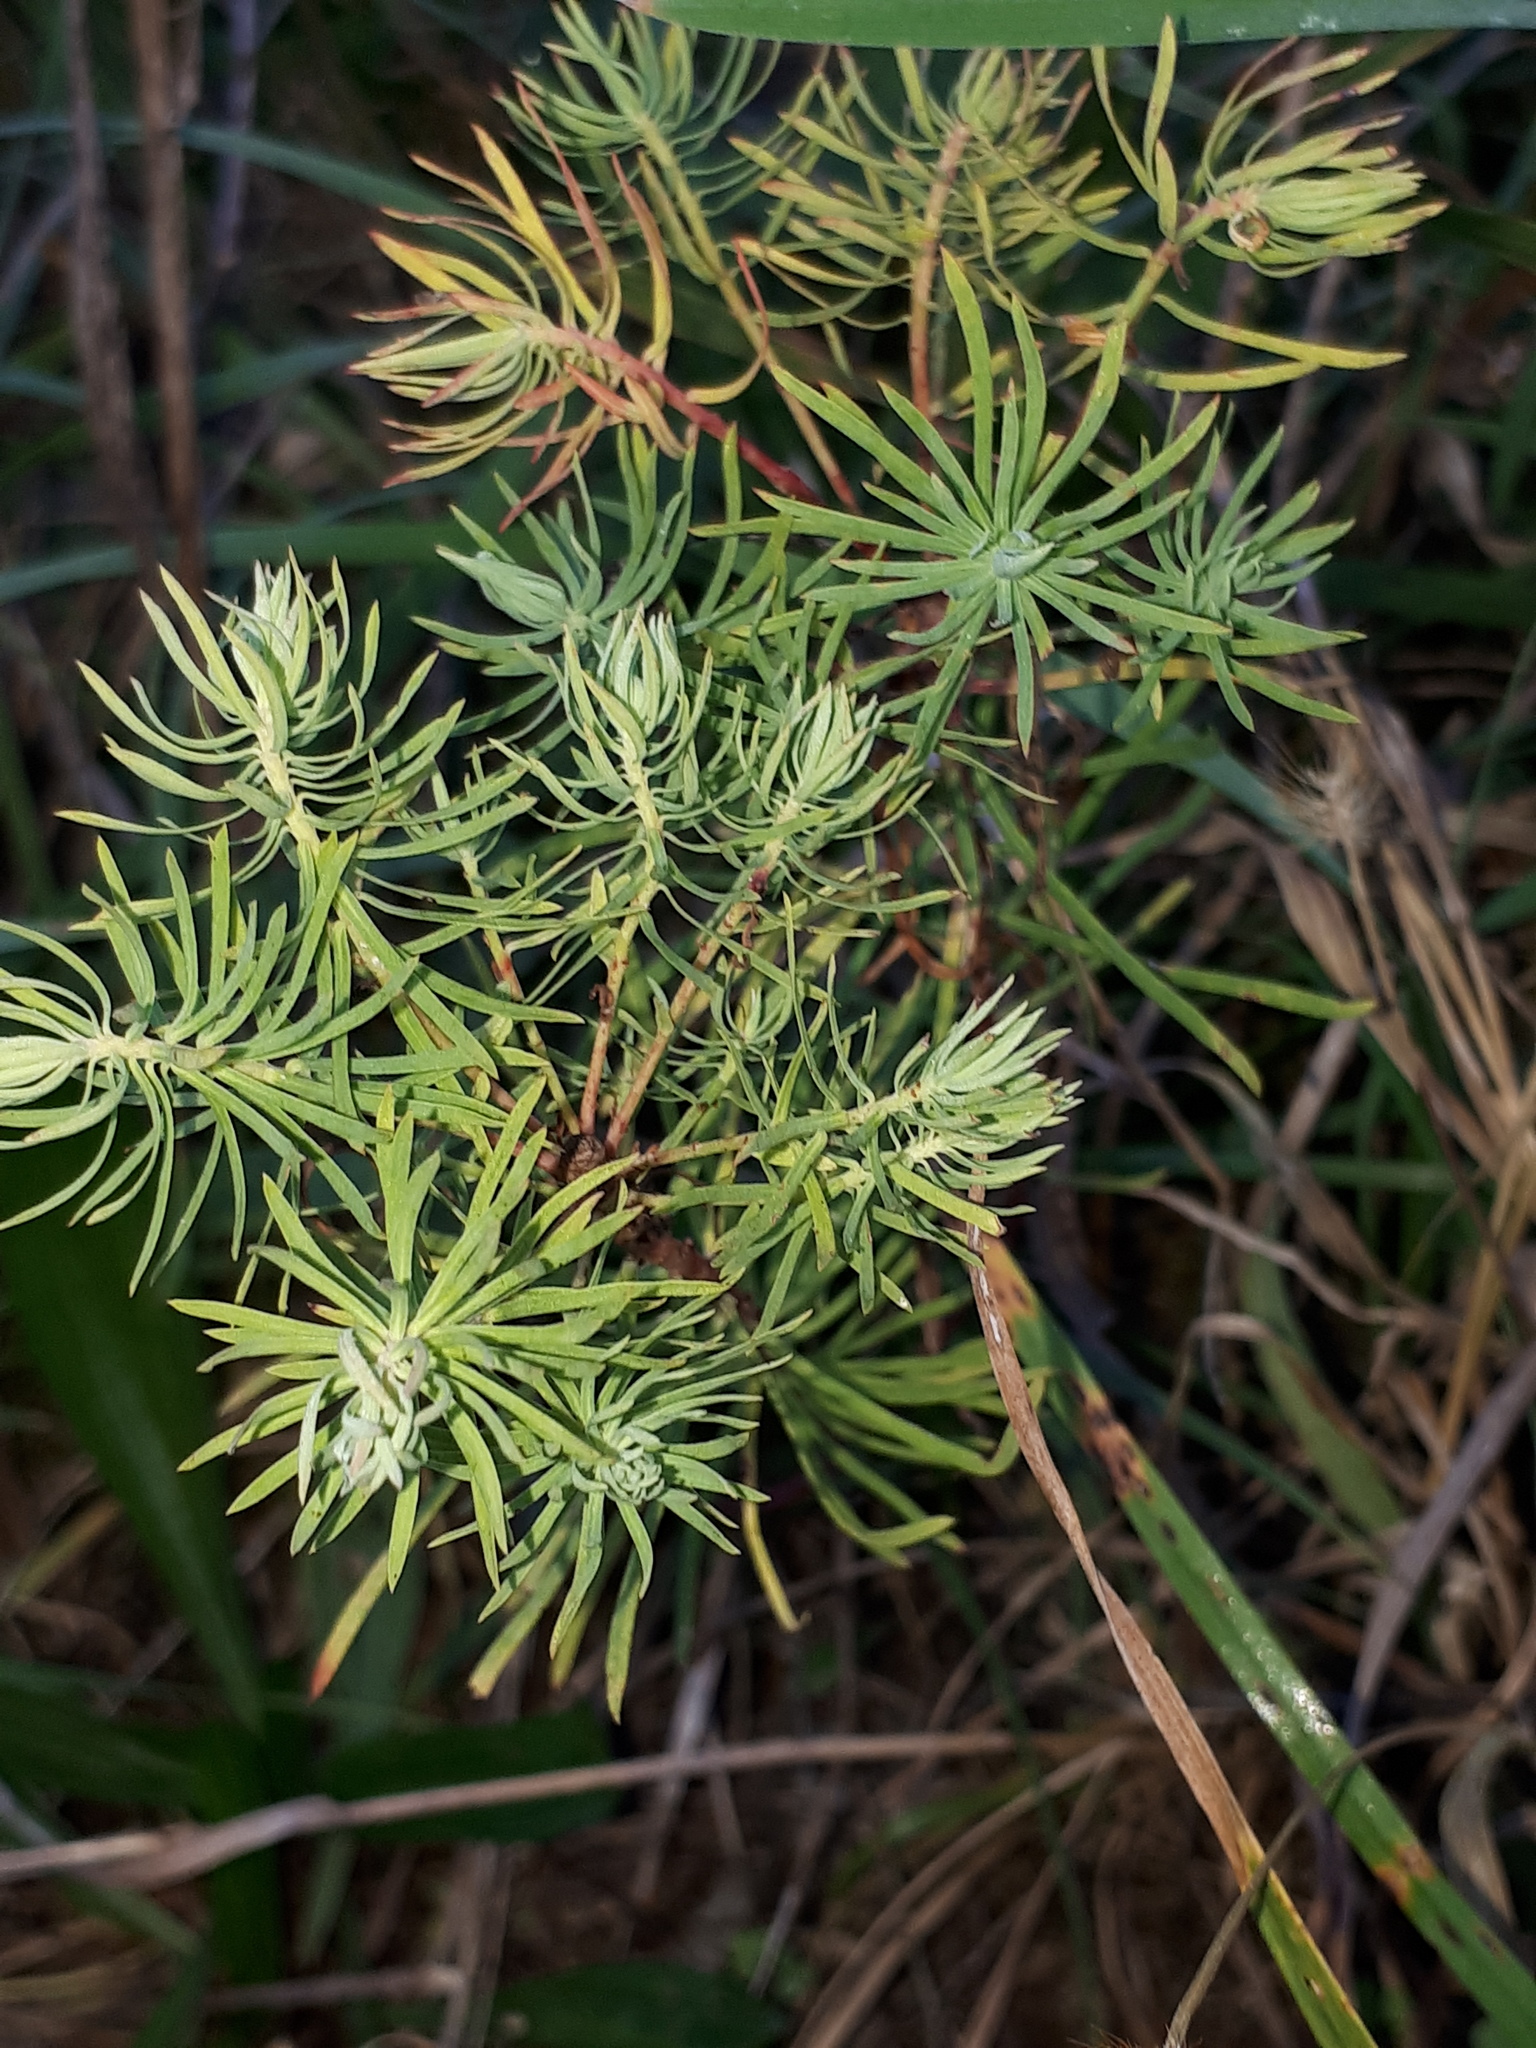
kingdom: Plantae
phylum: Tracheophyta
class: Magnoliopsida
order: Malpighiales
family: Euphorbiaceae
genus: Euphorbia
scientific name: Euphorbia cyparissias
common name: Cypress spurge
